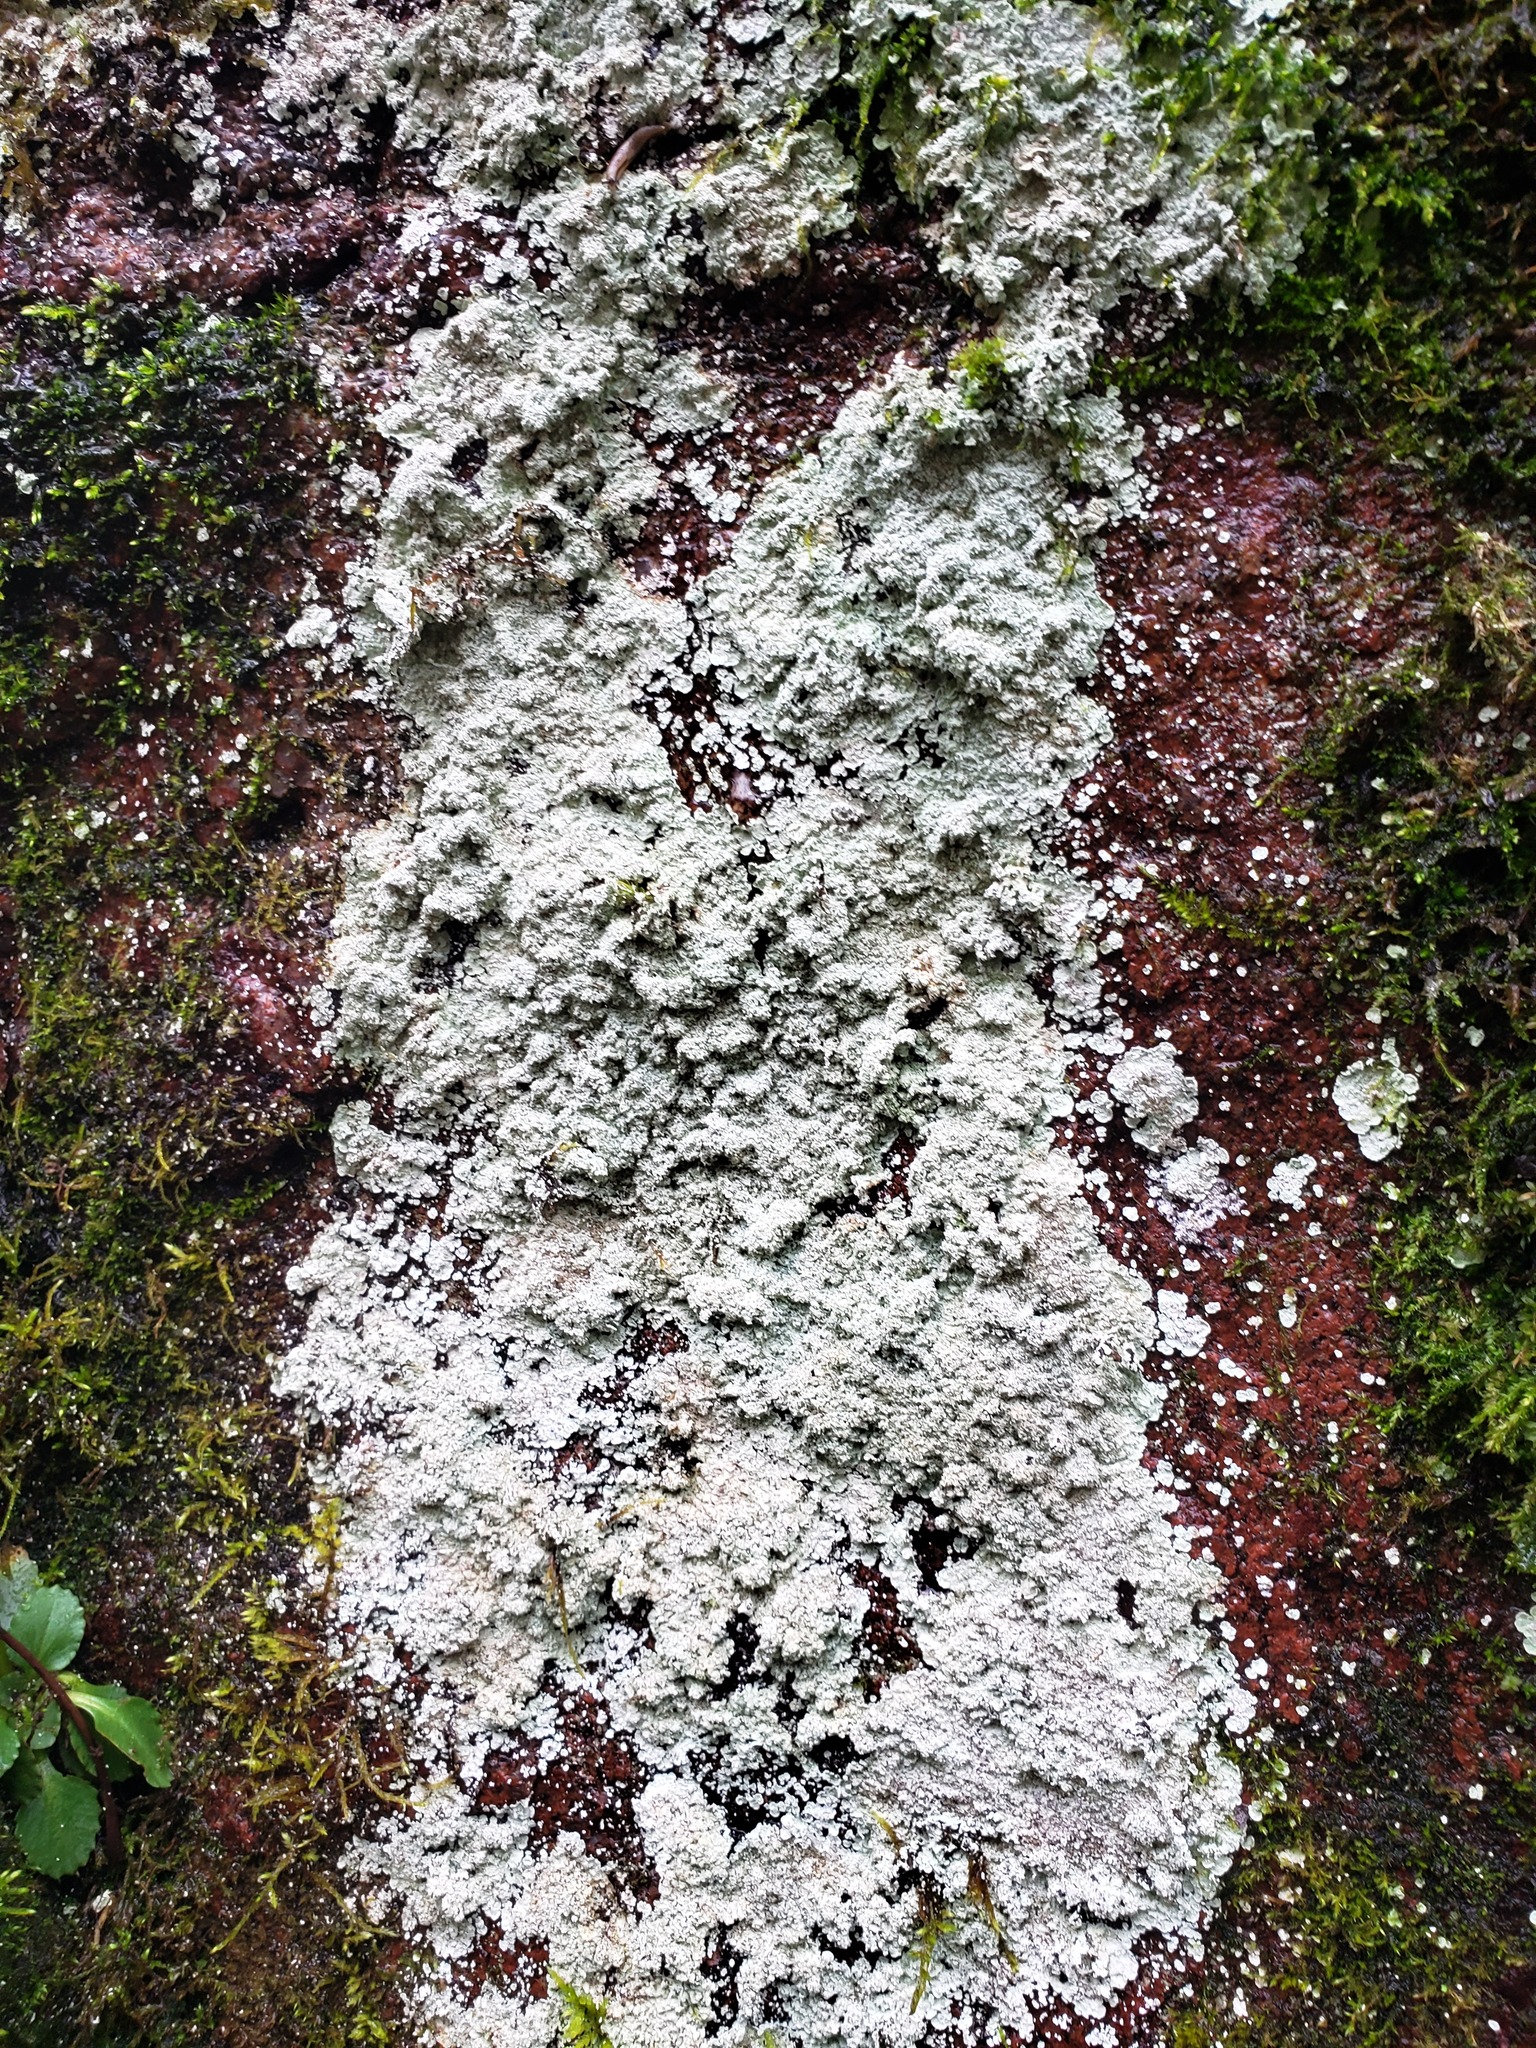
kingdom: Fungi
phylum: Ascomycota
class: Lecanoromycetes
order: Lecanorales
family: Stereocaulaceae
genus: Lepraria
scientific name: Lepraria lobificans
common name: Fluffy dust lichen
